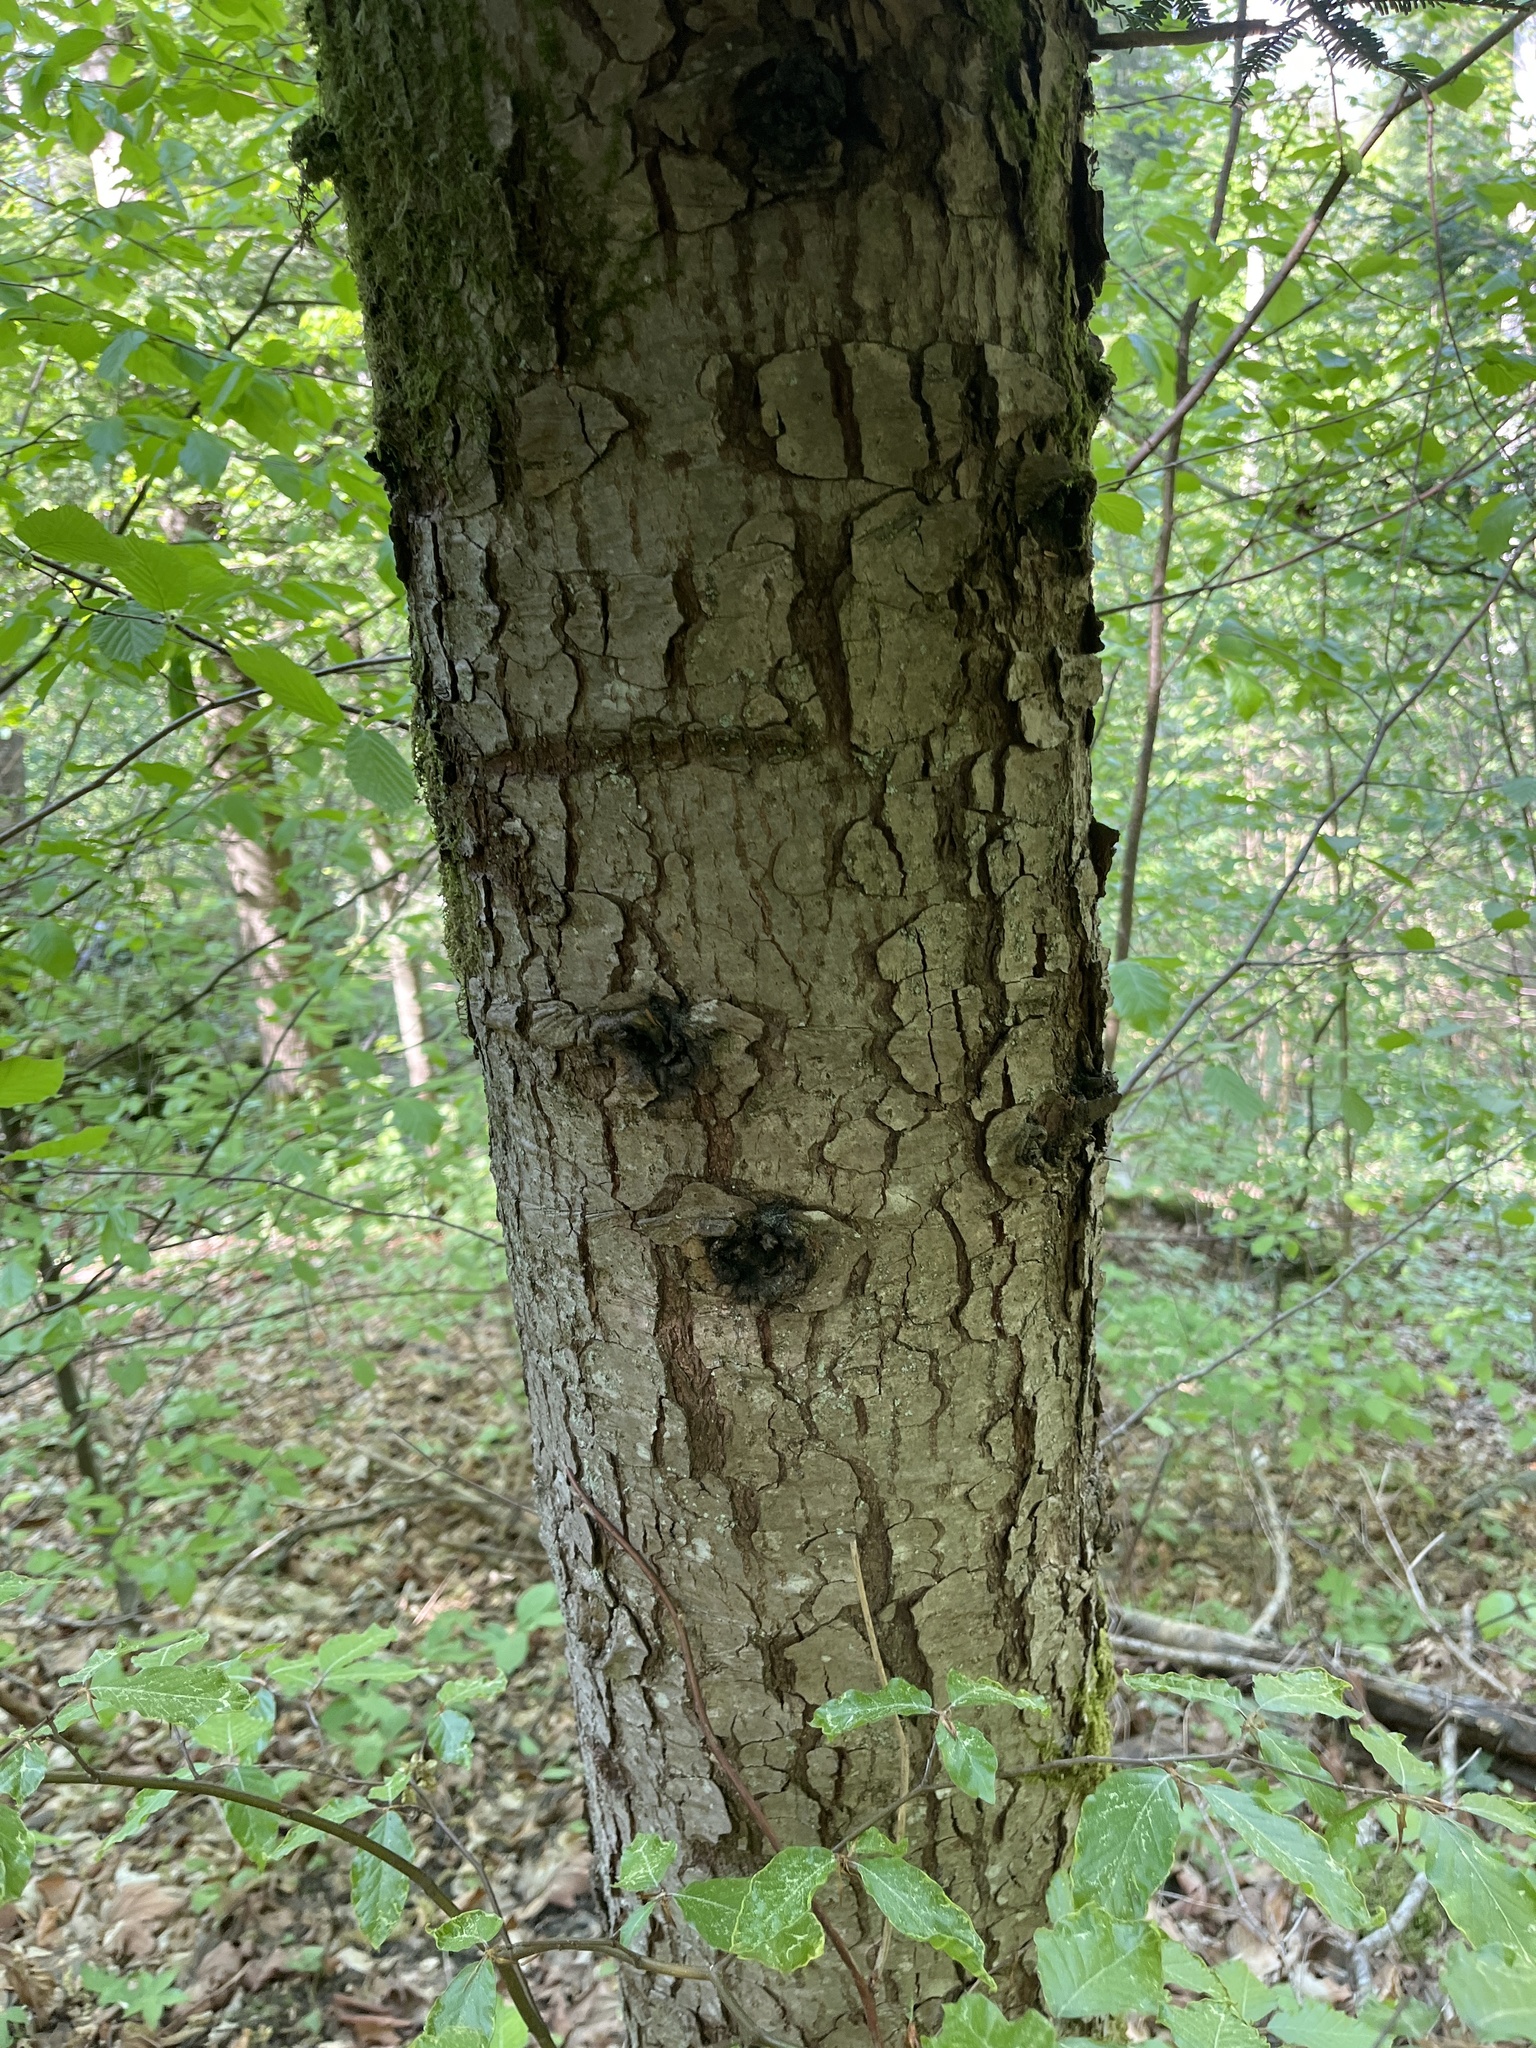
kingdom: Plantae
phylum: Tracheophyta
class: Pinopsida
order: Pinales
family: Pinaceae
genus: Tsuga
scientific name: Tsuga canadensis
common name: Eastern hemlock
